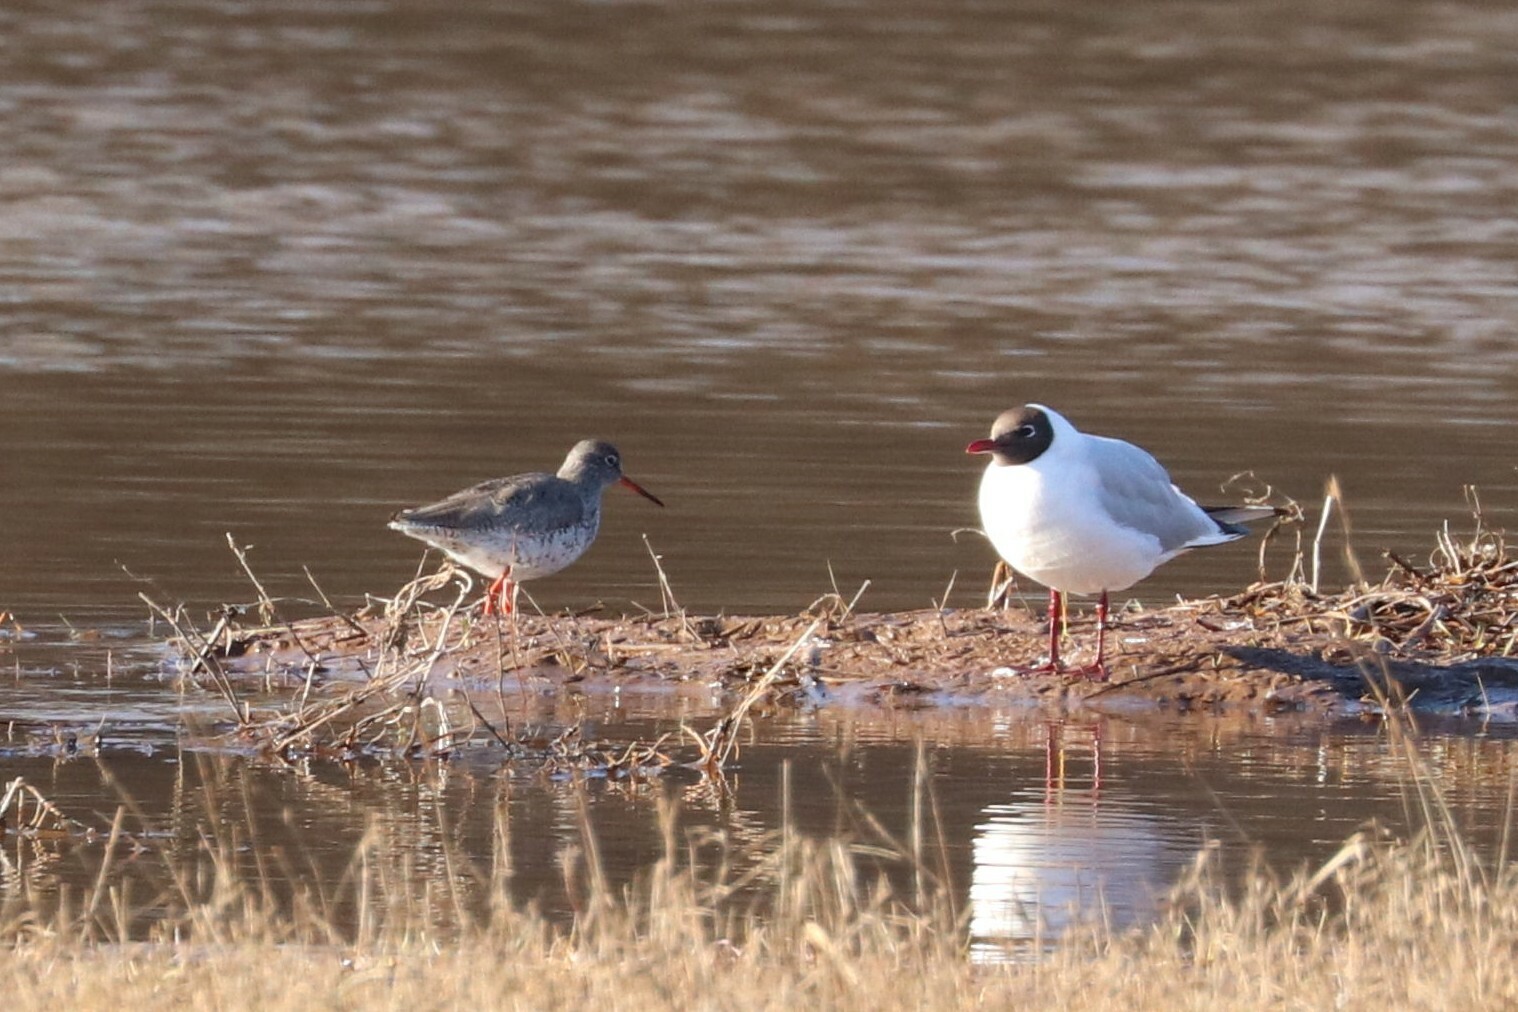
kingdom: Animalia
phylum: Chordata
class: Aves
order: Charadriiformes
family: Scolopacidae
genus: Tringa
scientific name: Tringa totanus
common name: Common redshank
